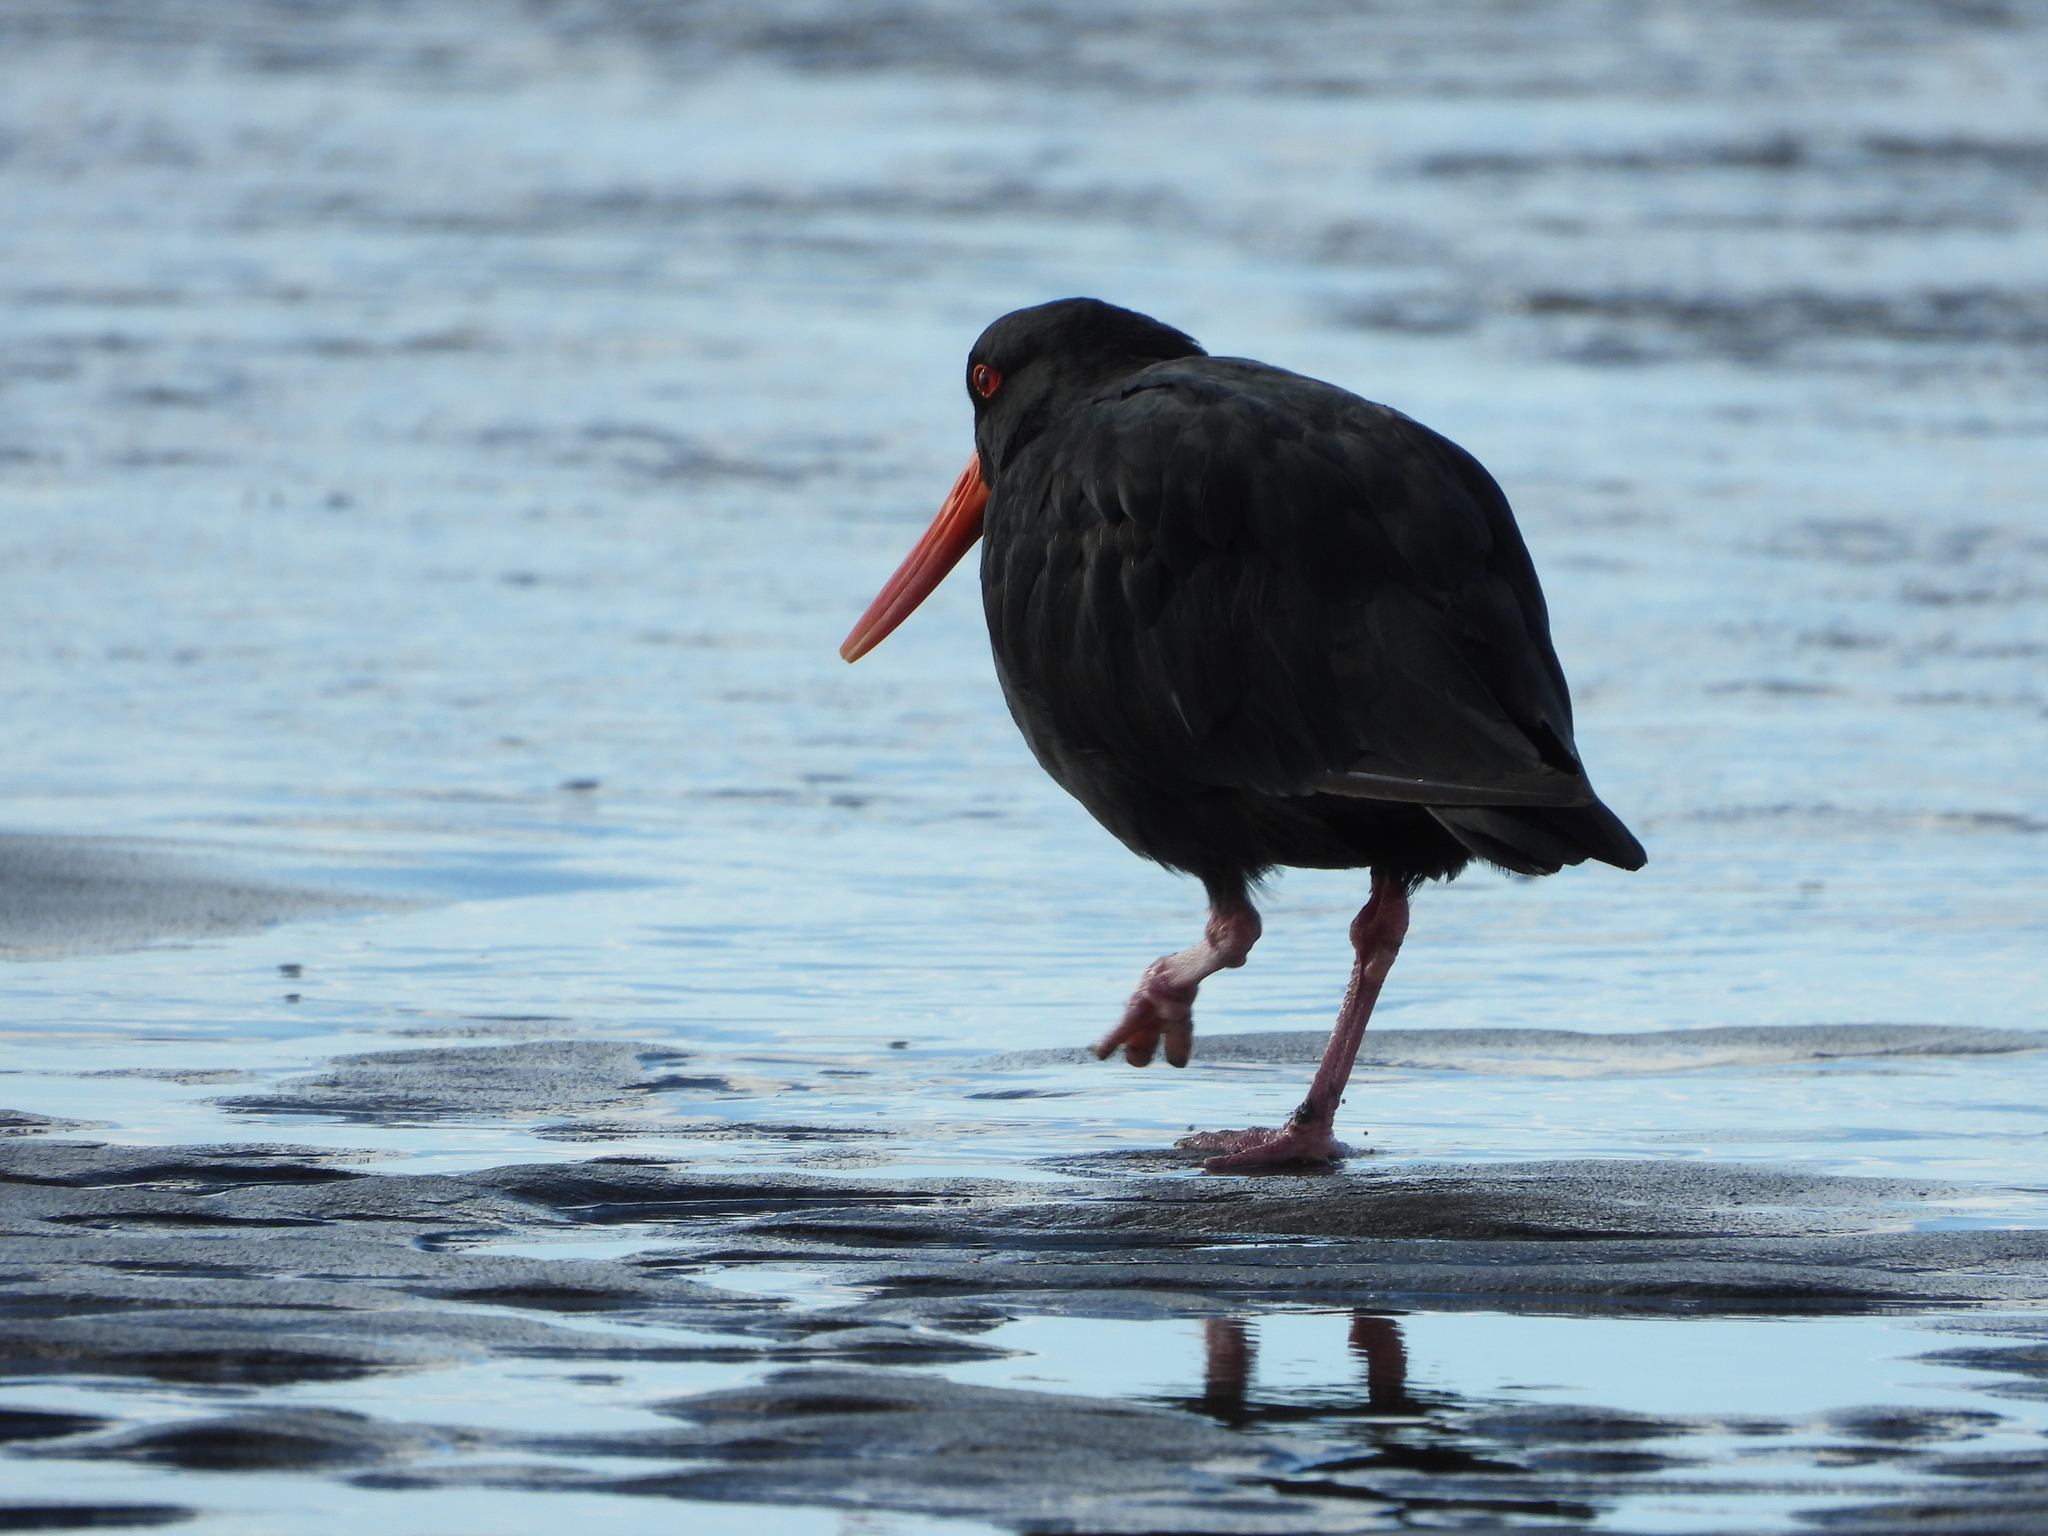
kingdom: Animalia
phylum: Chordata
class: Aves
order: Charadriiformes
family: Haematopodidae
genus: Haematopus
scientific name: Haematopus unicolor
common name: Variable oystercatcher
